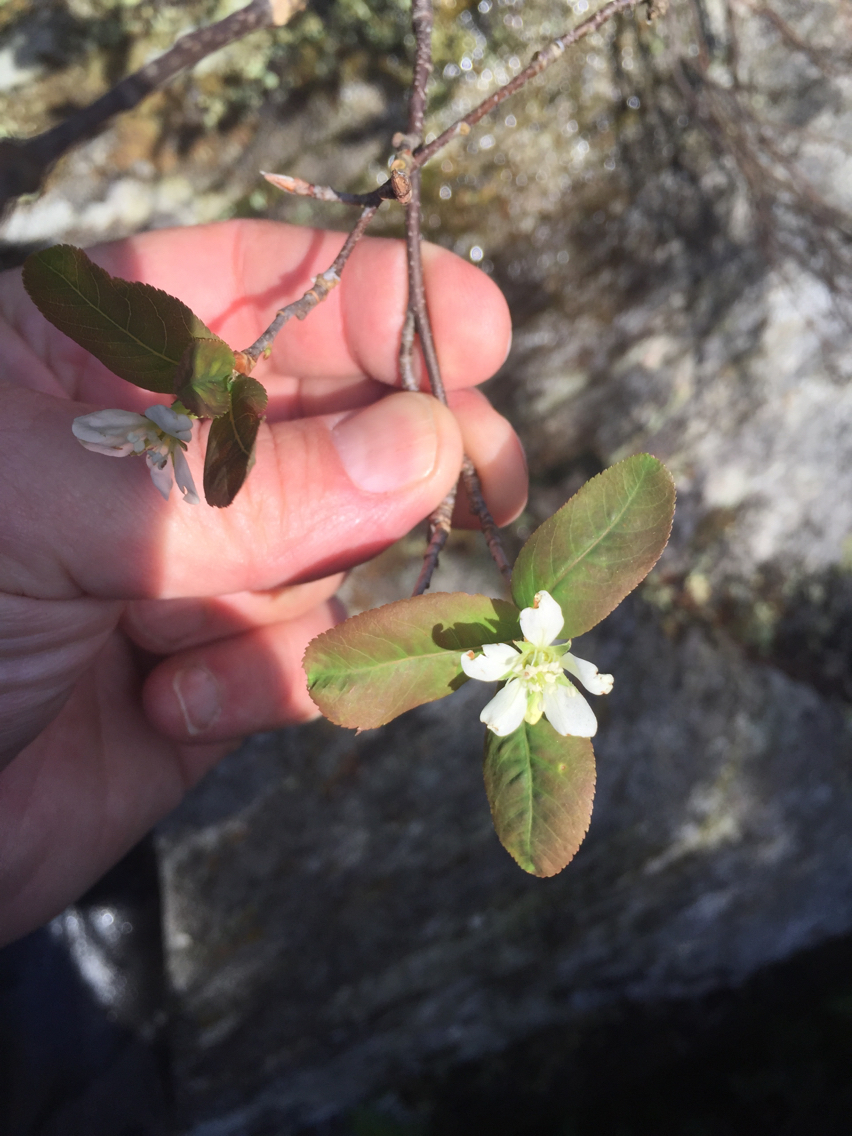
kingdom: Plantae
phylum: Tracheophyta
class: Magnoliopsida
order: Rosales
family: Rosaceae
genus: Amelanchier
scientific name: Amelanchier bartramiana
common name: Mountain serviceberry
